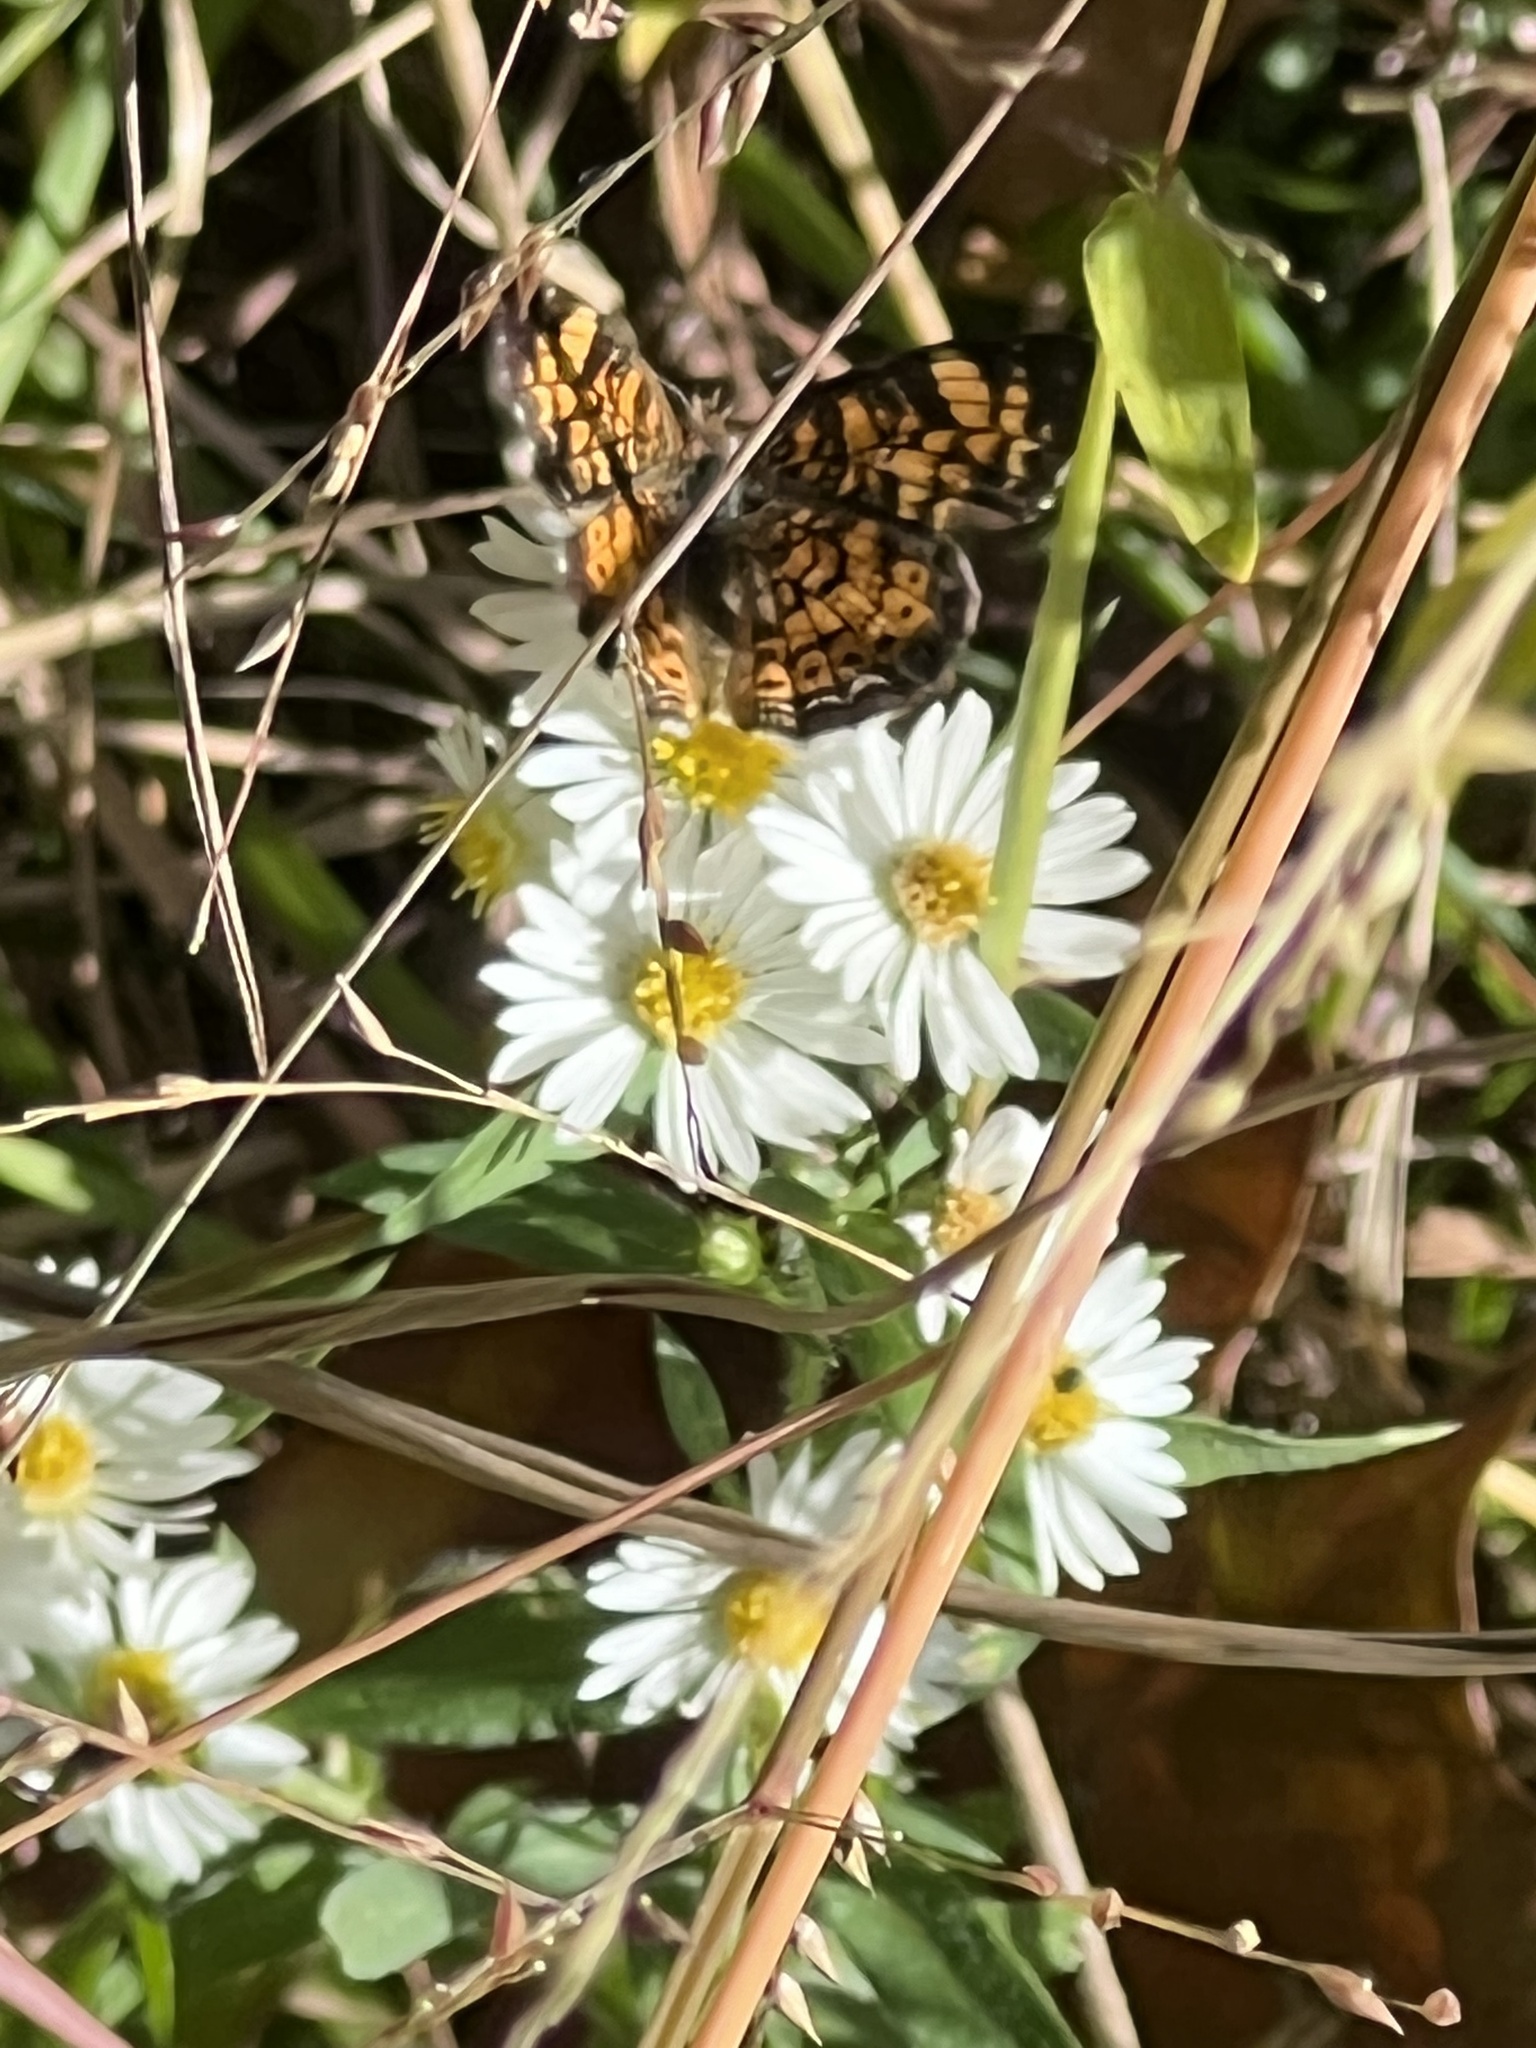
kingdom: Animalia
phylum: Arthropoda
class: Insecta
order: Lepidoptera
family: Nymphalidae
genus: Phyciodes
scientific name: Phyciodes tharos
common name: Pearl crescent
